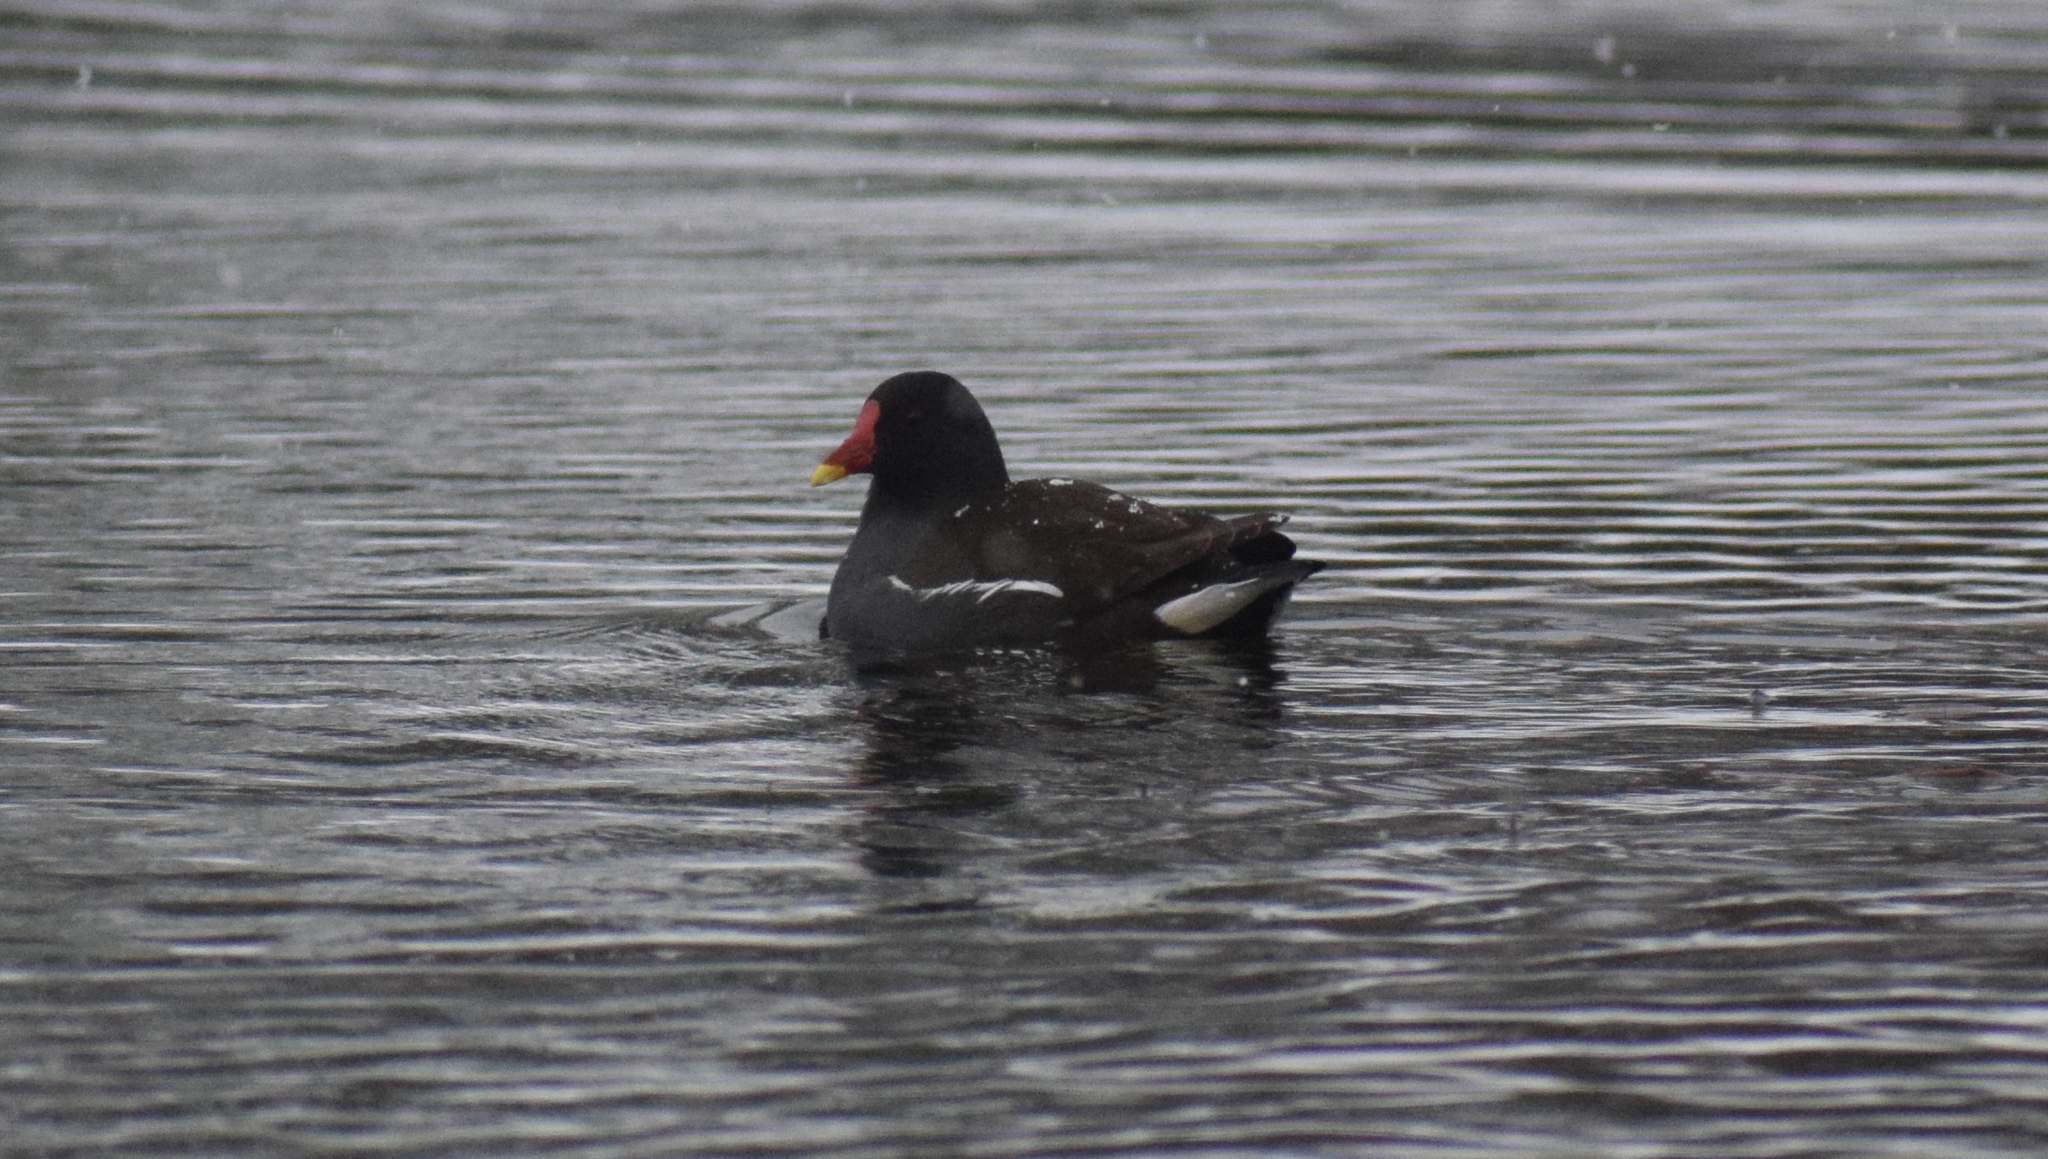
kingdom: Animalia
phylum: Chordata
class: Aves
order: Gruiformes
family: Rallidae
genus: Gallinula
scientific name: Gallinula chloropus
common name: Common moorhen
